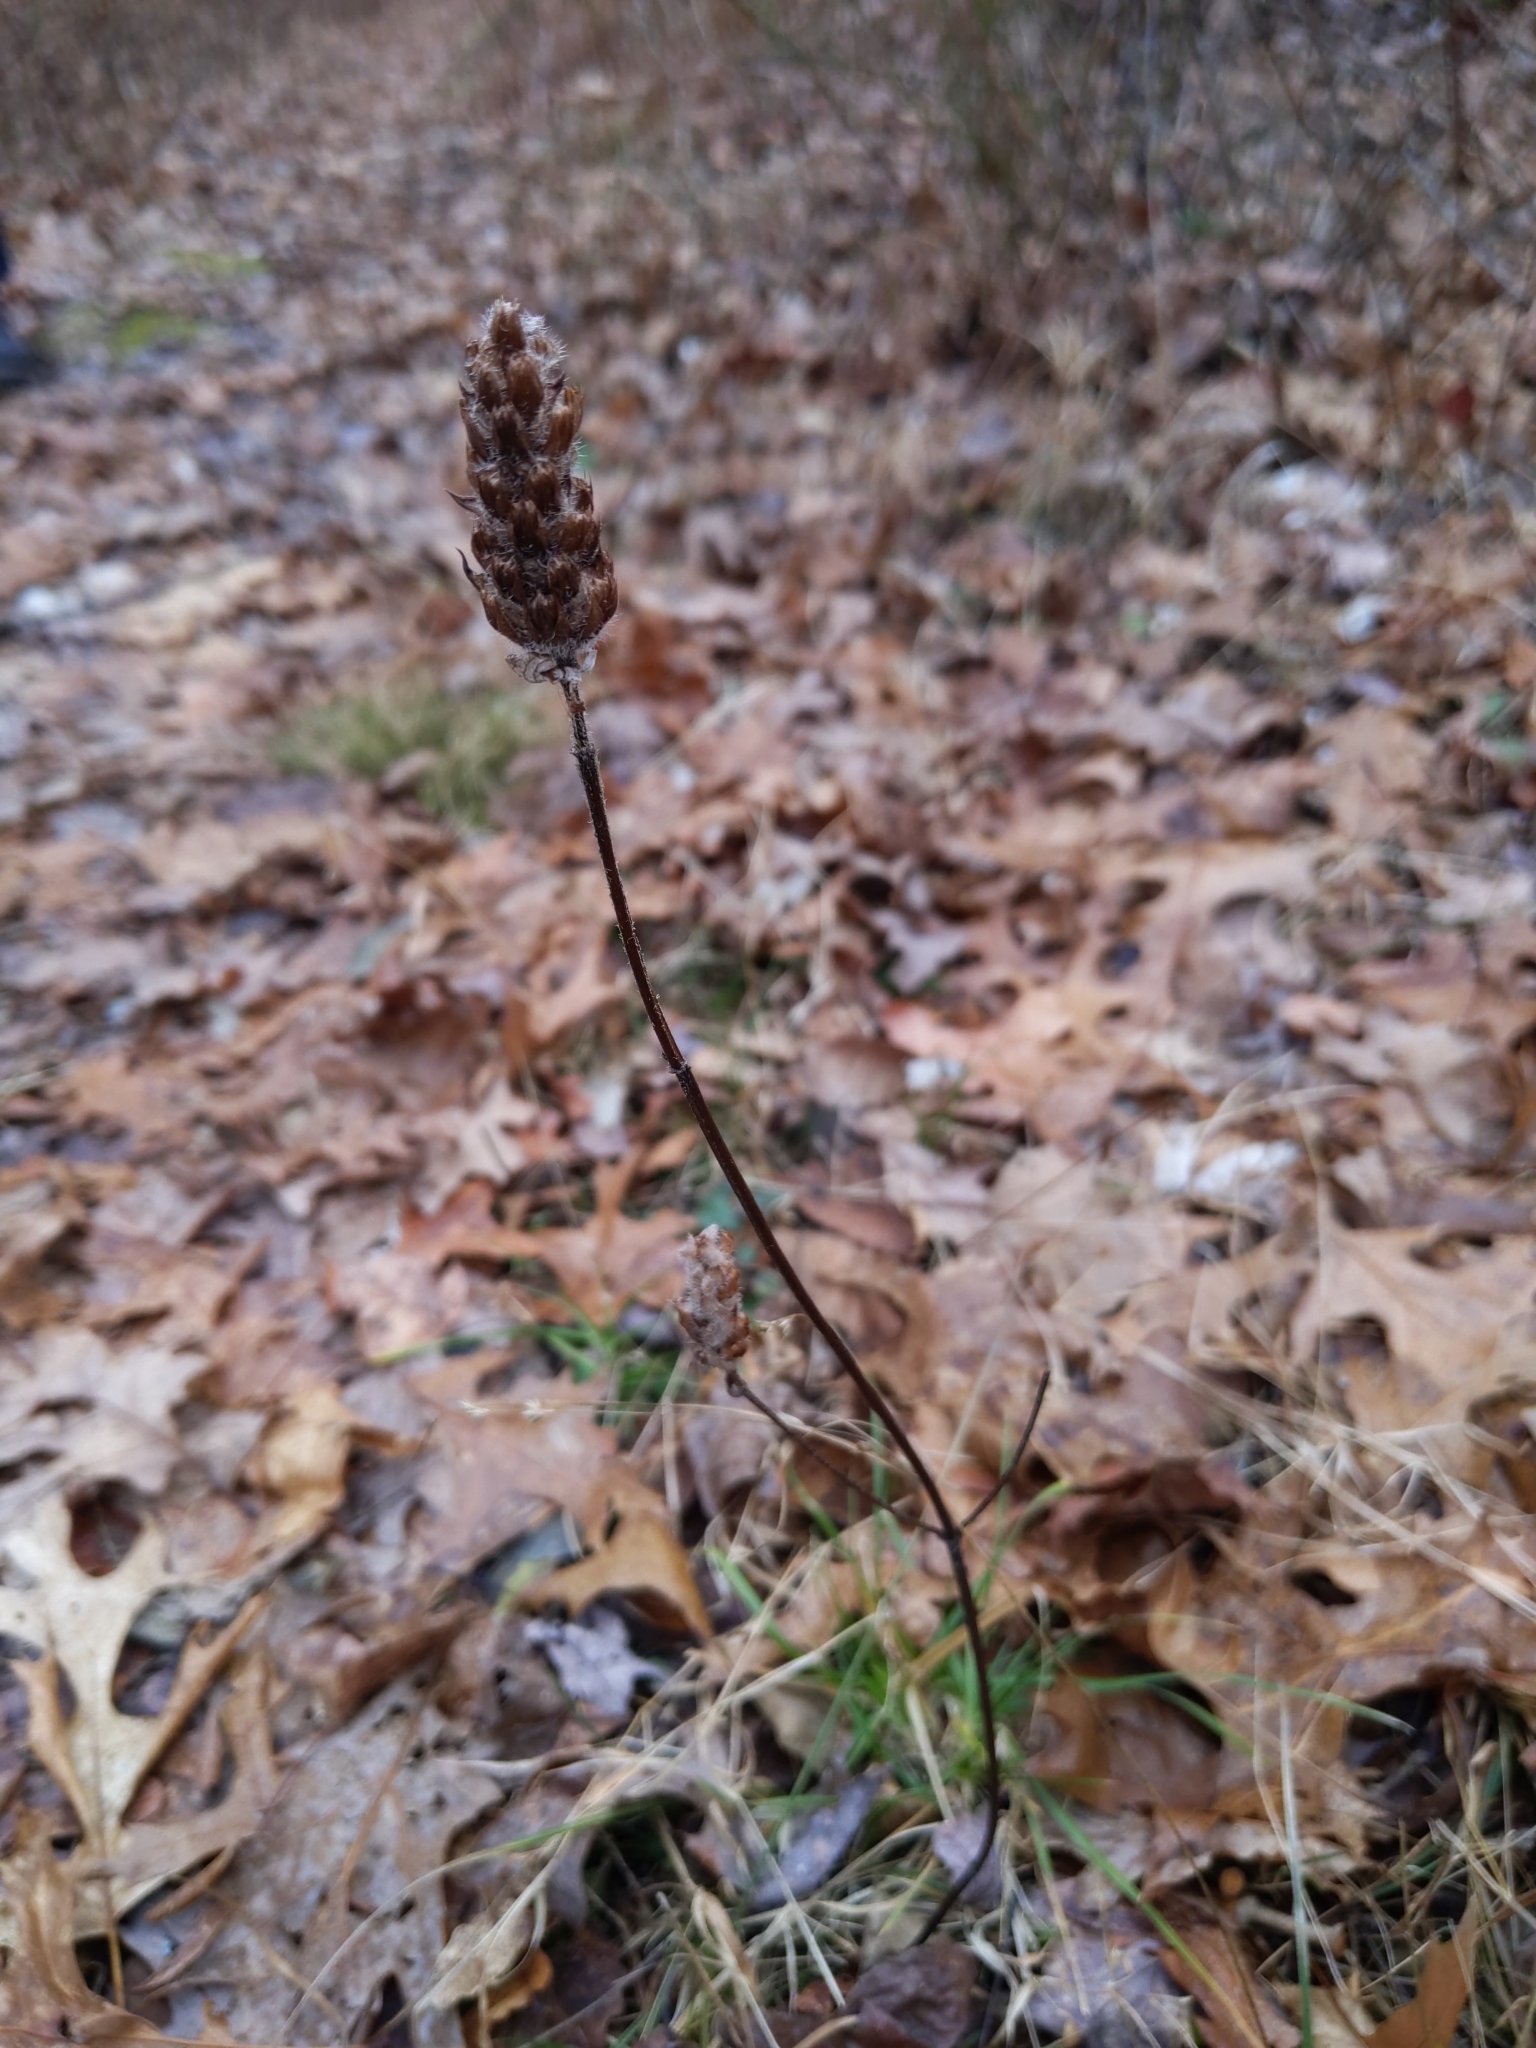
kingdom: Plantae
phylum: Tracheophyta
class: Magnoliopsida
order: Lamiales
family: Lamiaceae
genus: Prunella
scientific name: Prunella vulgaris
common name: Heal-all
